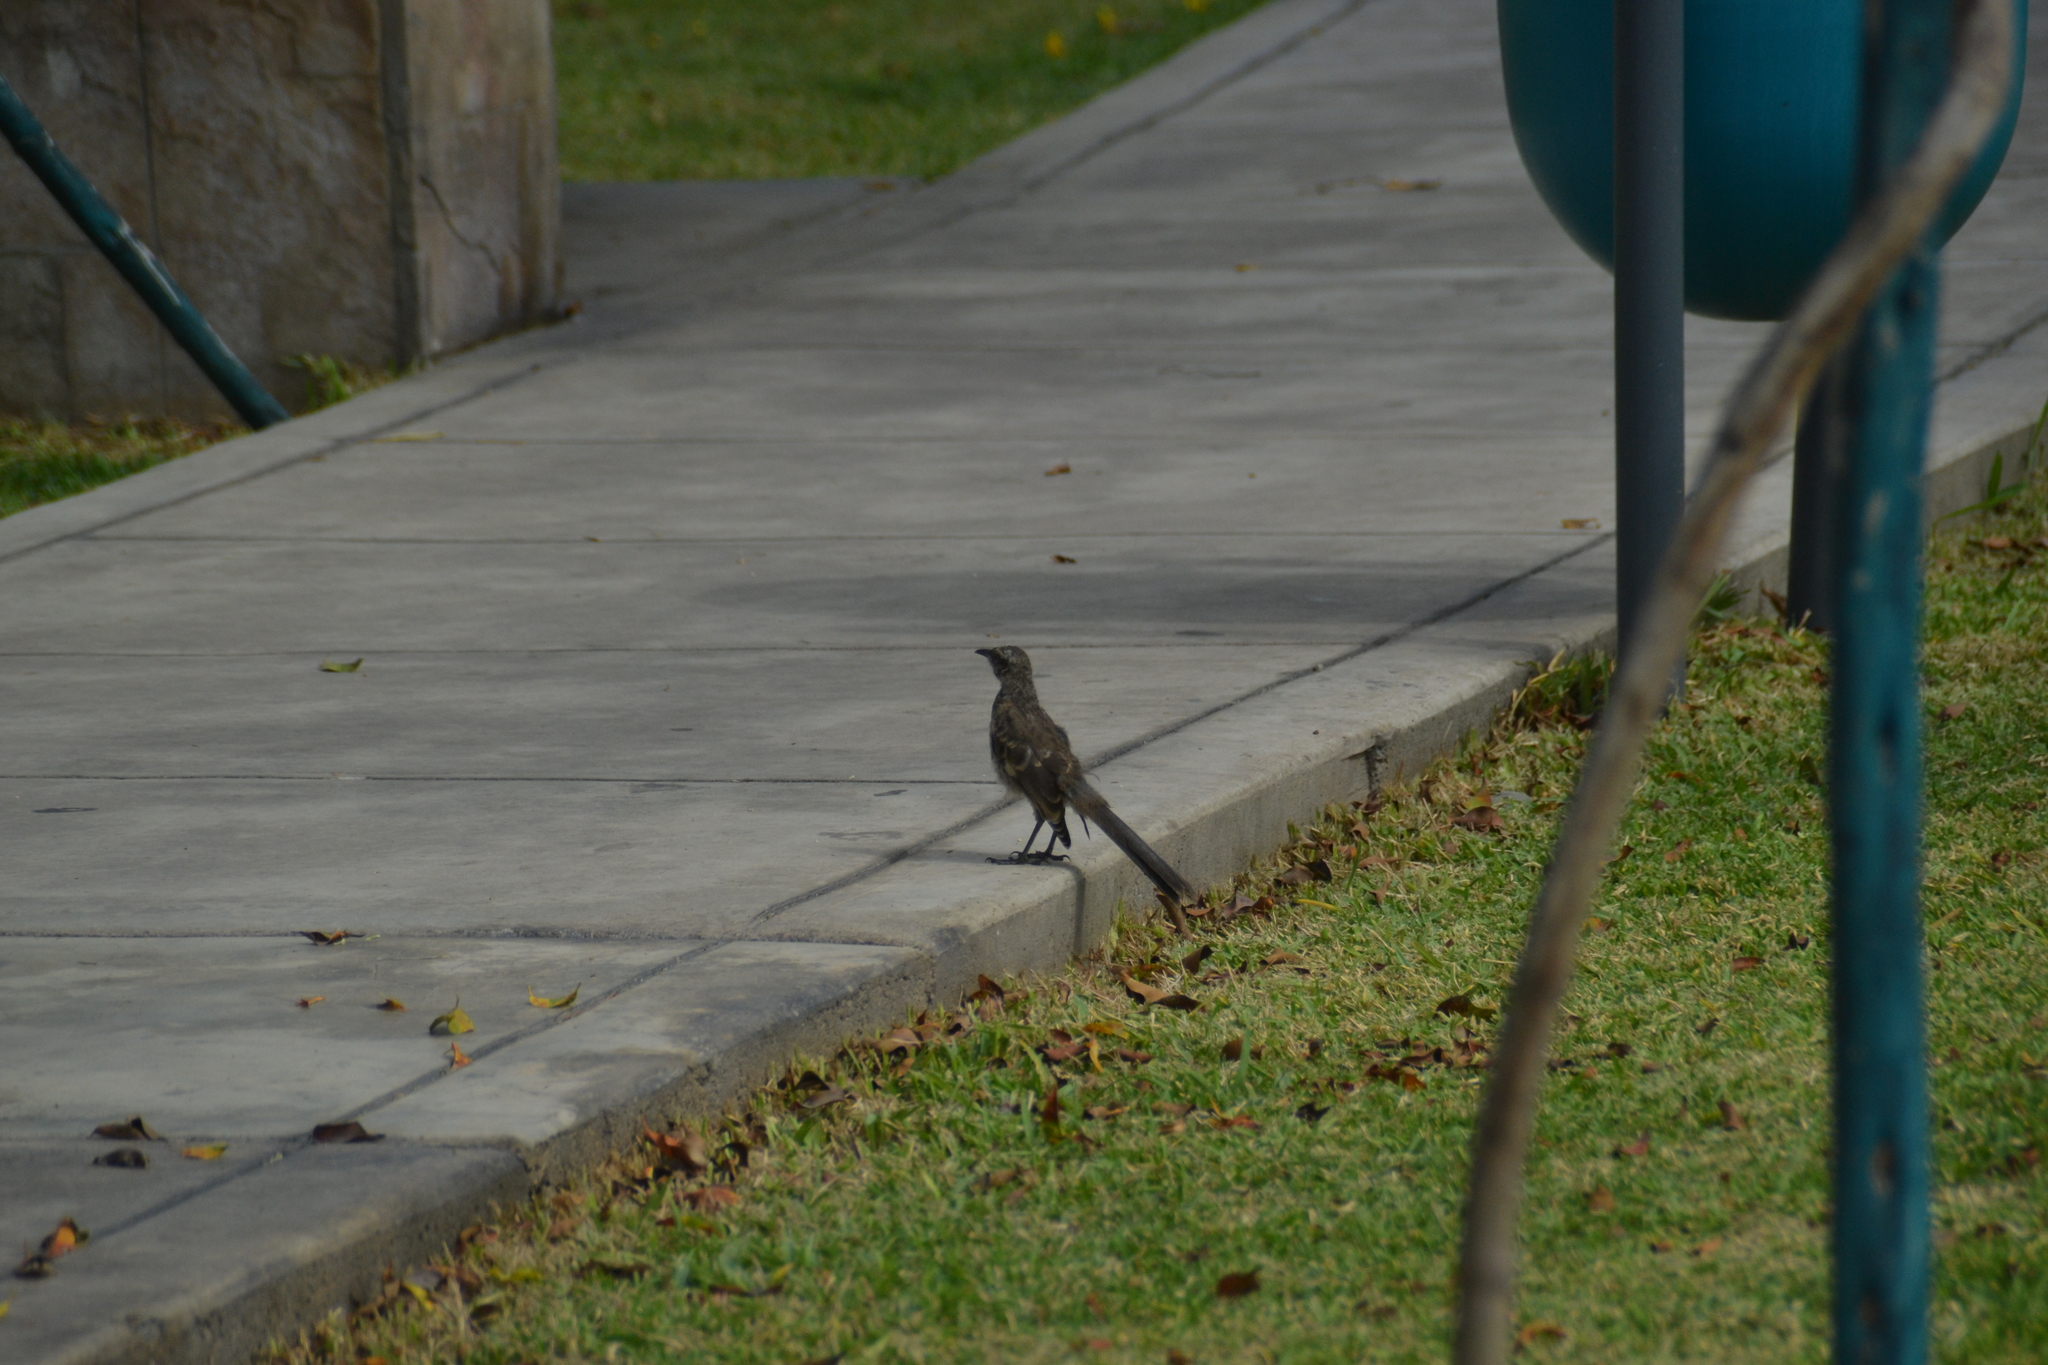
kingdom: Animalia
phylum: Chordata
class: Aves
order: Passeriformes
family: Mimidae
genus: Mimus
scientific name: Mimus longicaudatus
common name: Long-tailed mockingbird
